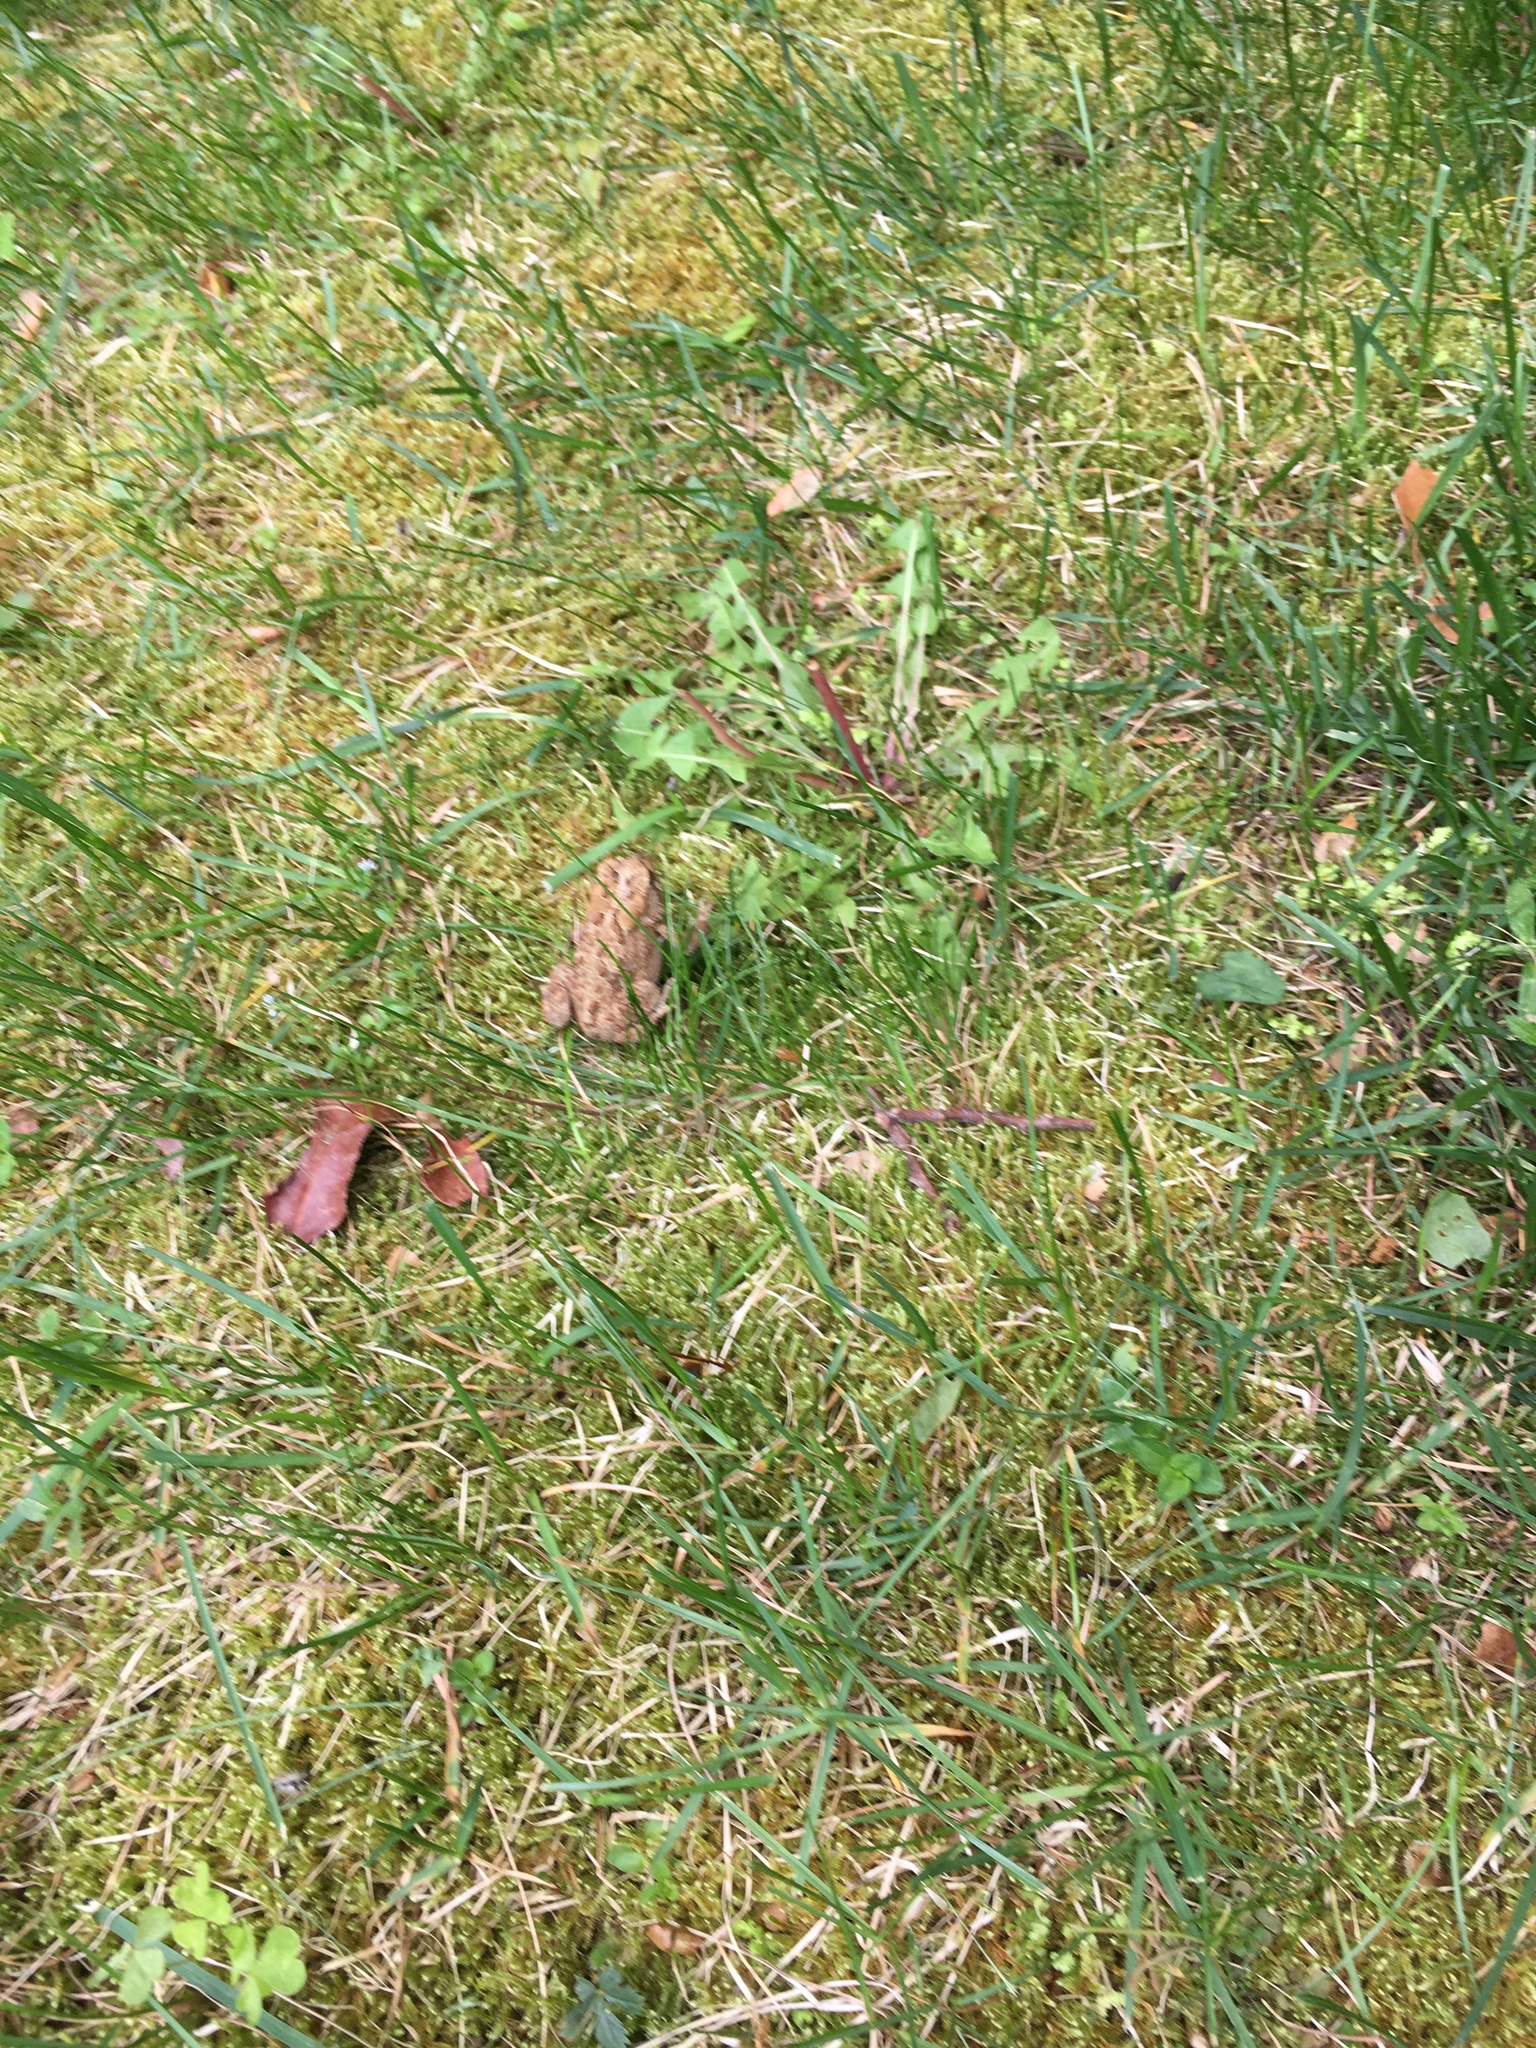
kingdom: Animalia
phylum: Chordata
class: Amphibia
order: Anura
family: Bufonidae
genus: Anaxyrus
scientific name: Anaxyrus americanus
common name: American toad
